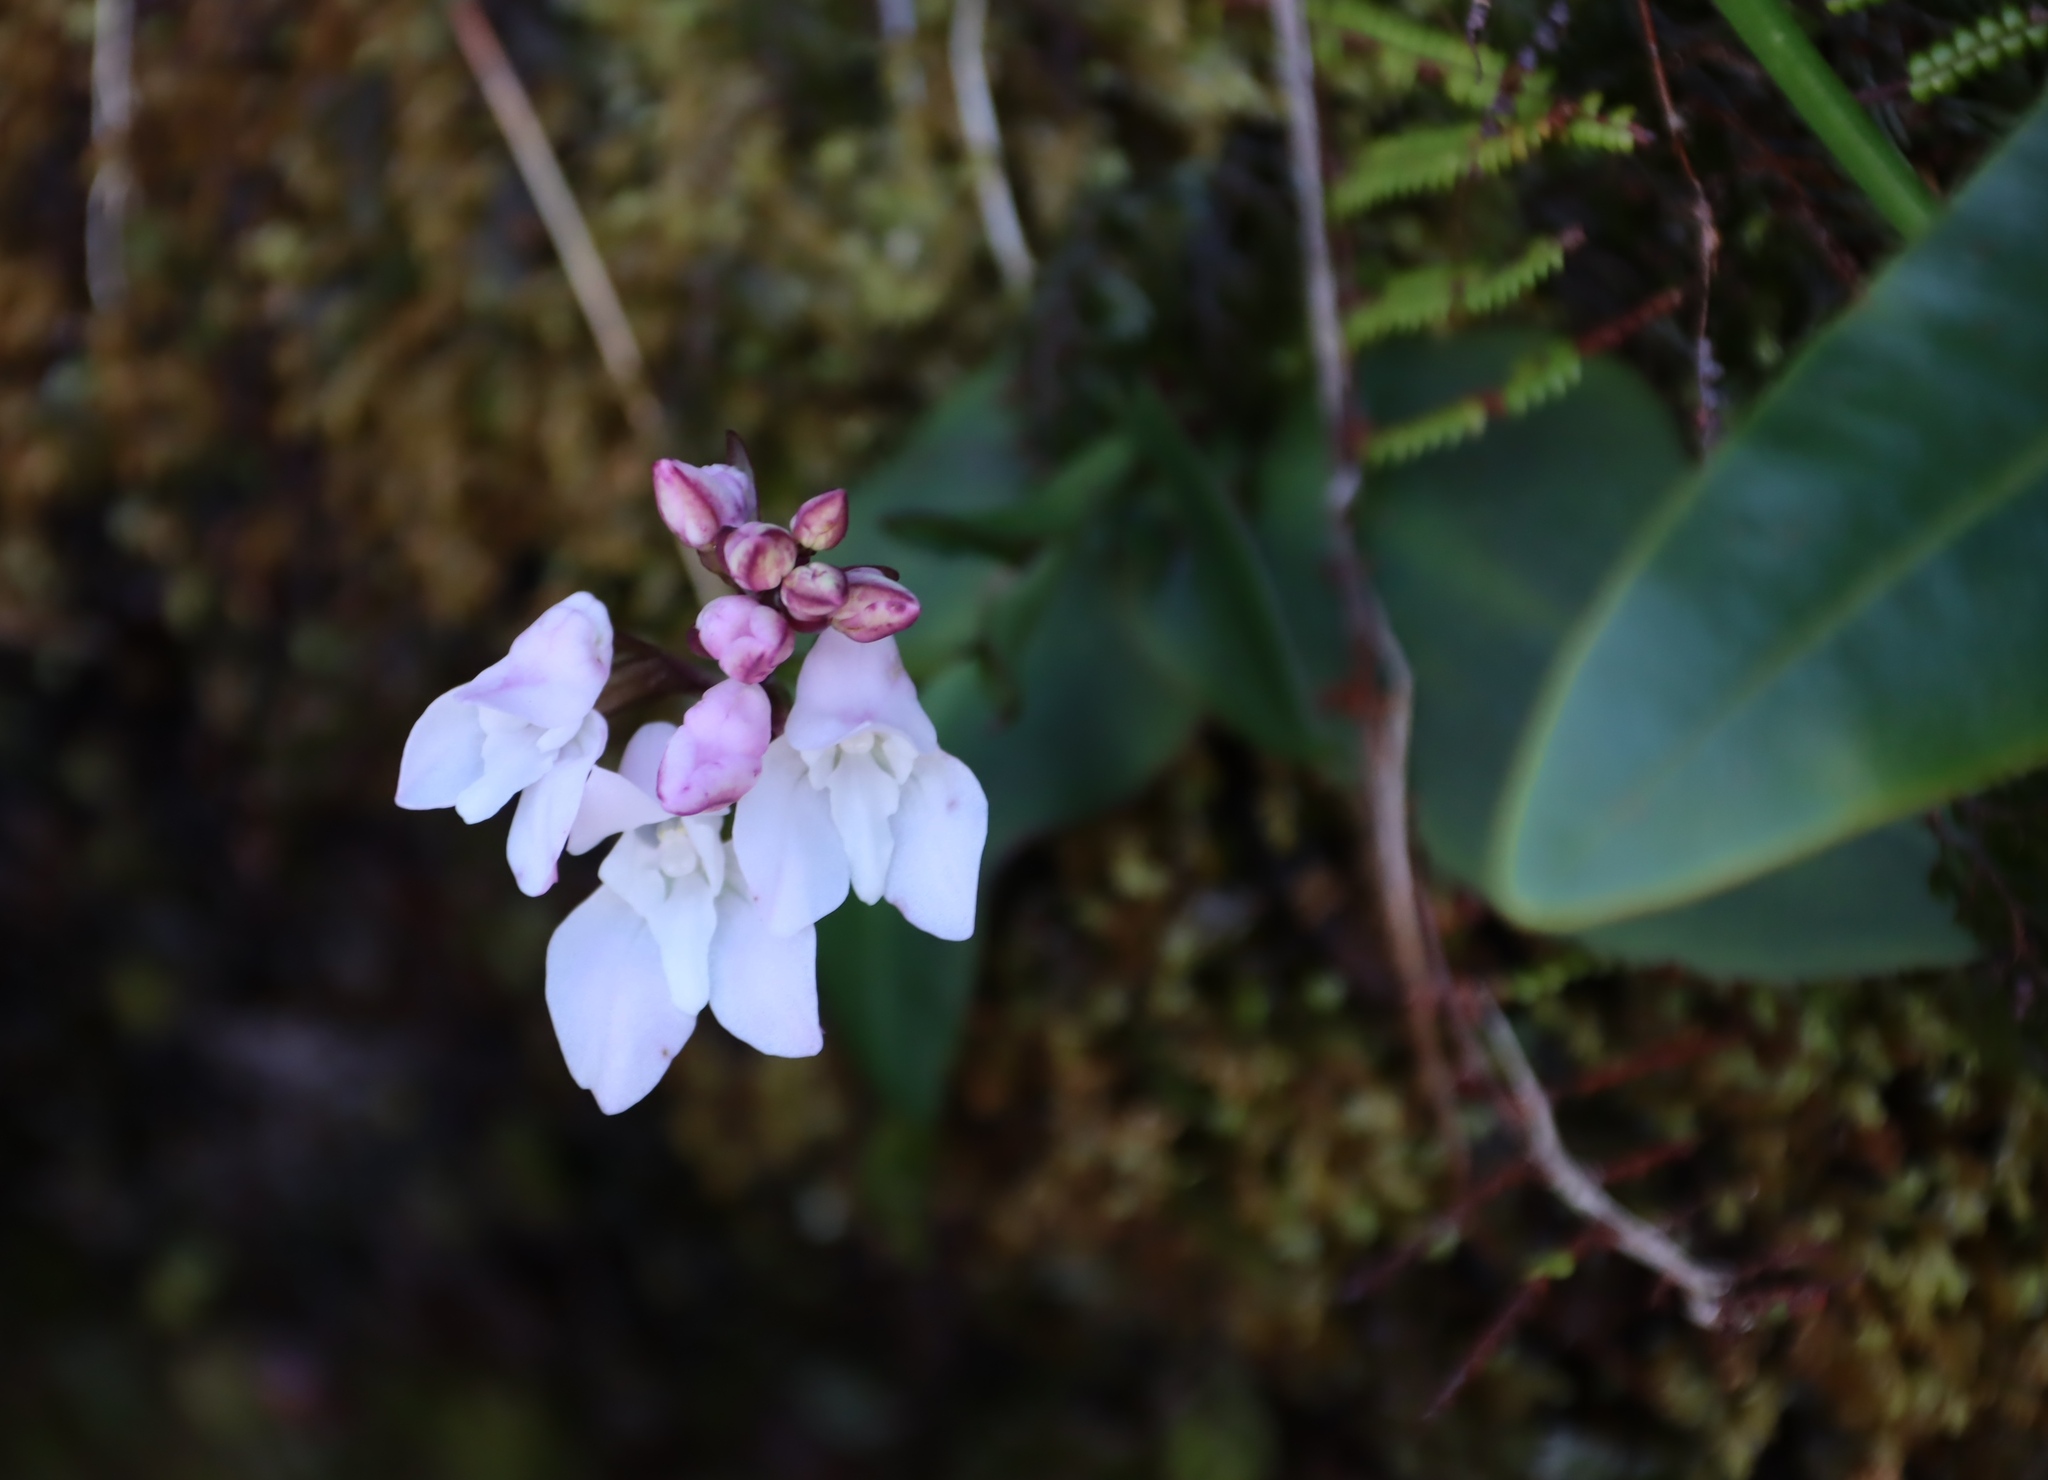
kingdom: Plantae
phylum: Tracheophyta
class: Liliopsida
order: Asparagales
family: Orchidaceae
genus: Disa
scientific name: Disa rosea
